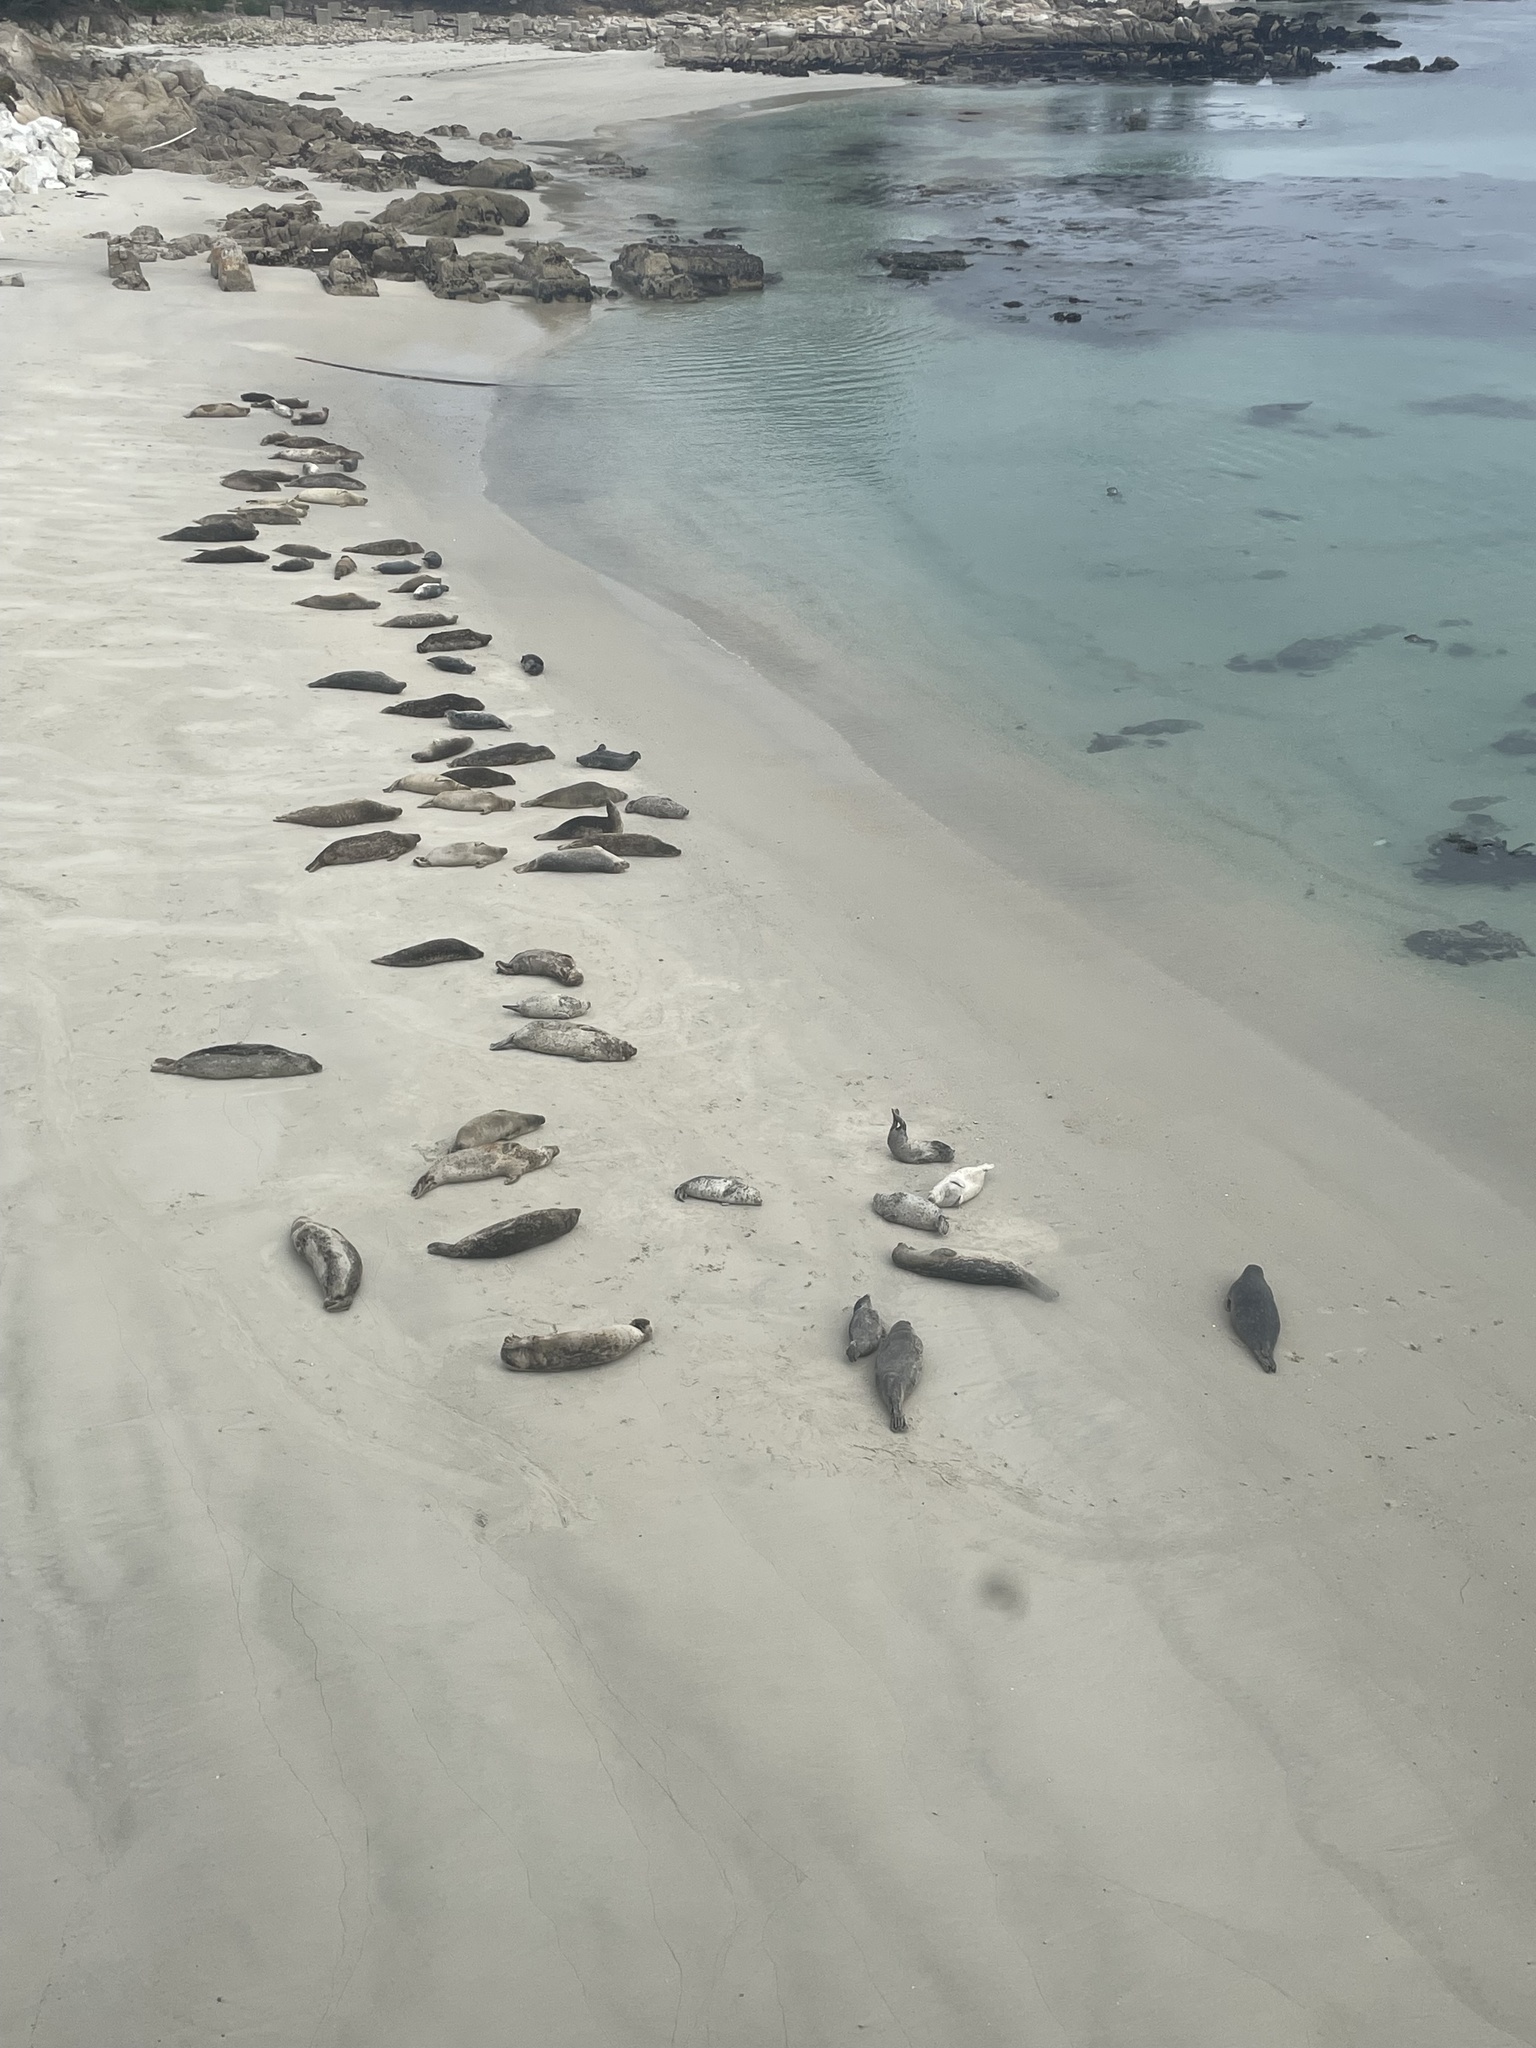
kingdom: Animalia
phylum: Chordata
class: Mammalia
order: Carnivora
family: Phocidae
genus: Phoca
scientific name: Phoca vitulina
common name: Harbor seal
